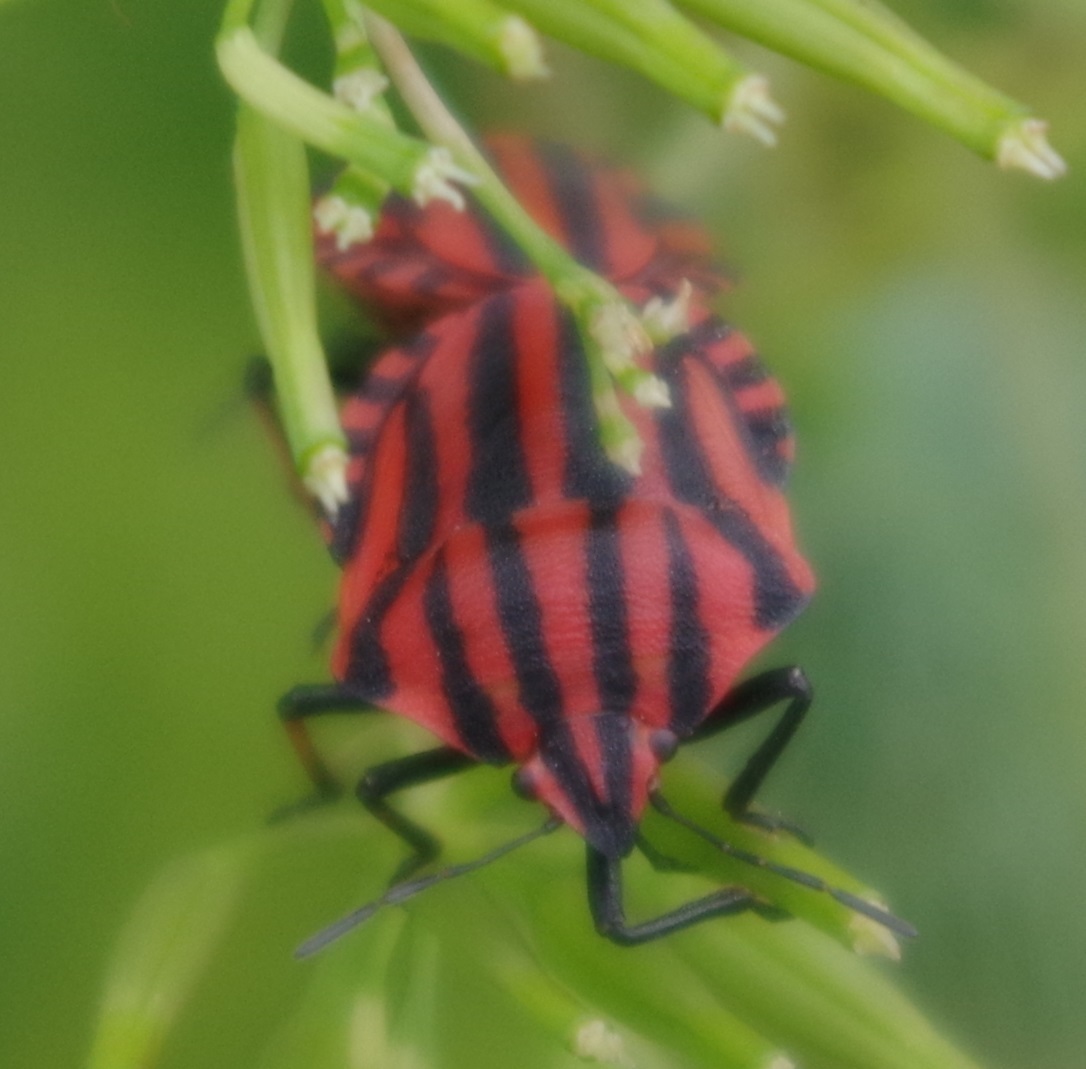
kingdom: Animalia
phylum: Arthropoda
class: Insecta
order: Hemiptera
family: Pentatomidae
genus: Graphosoma
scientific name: Graphosoma italicum
